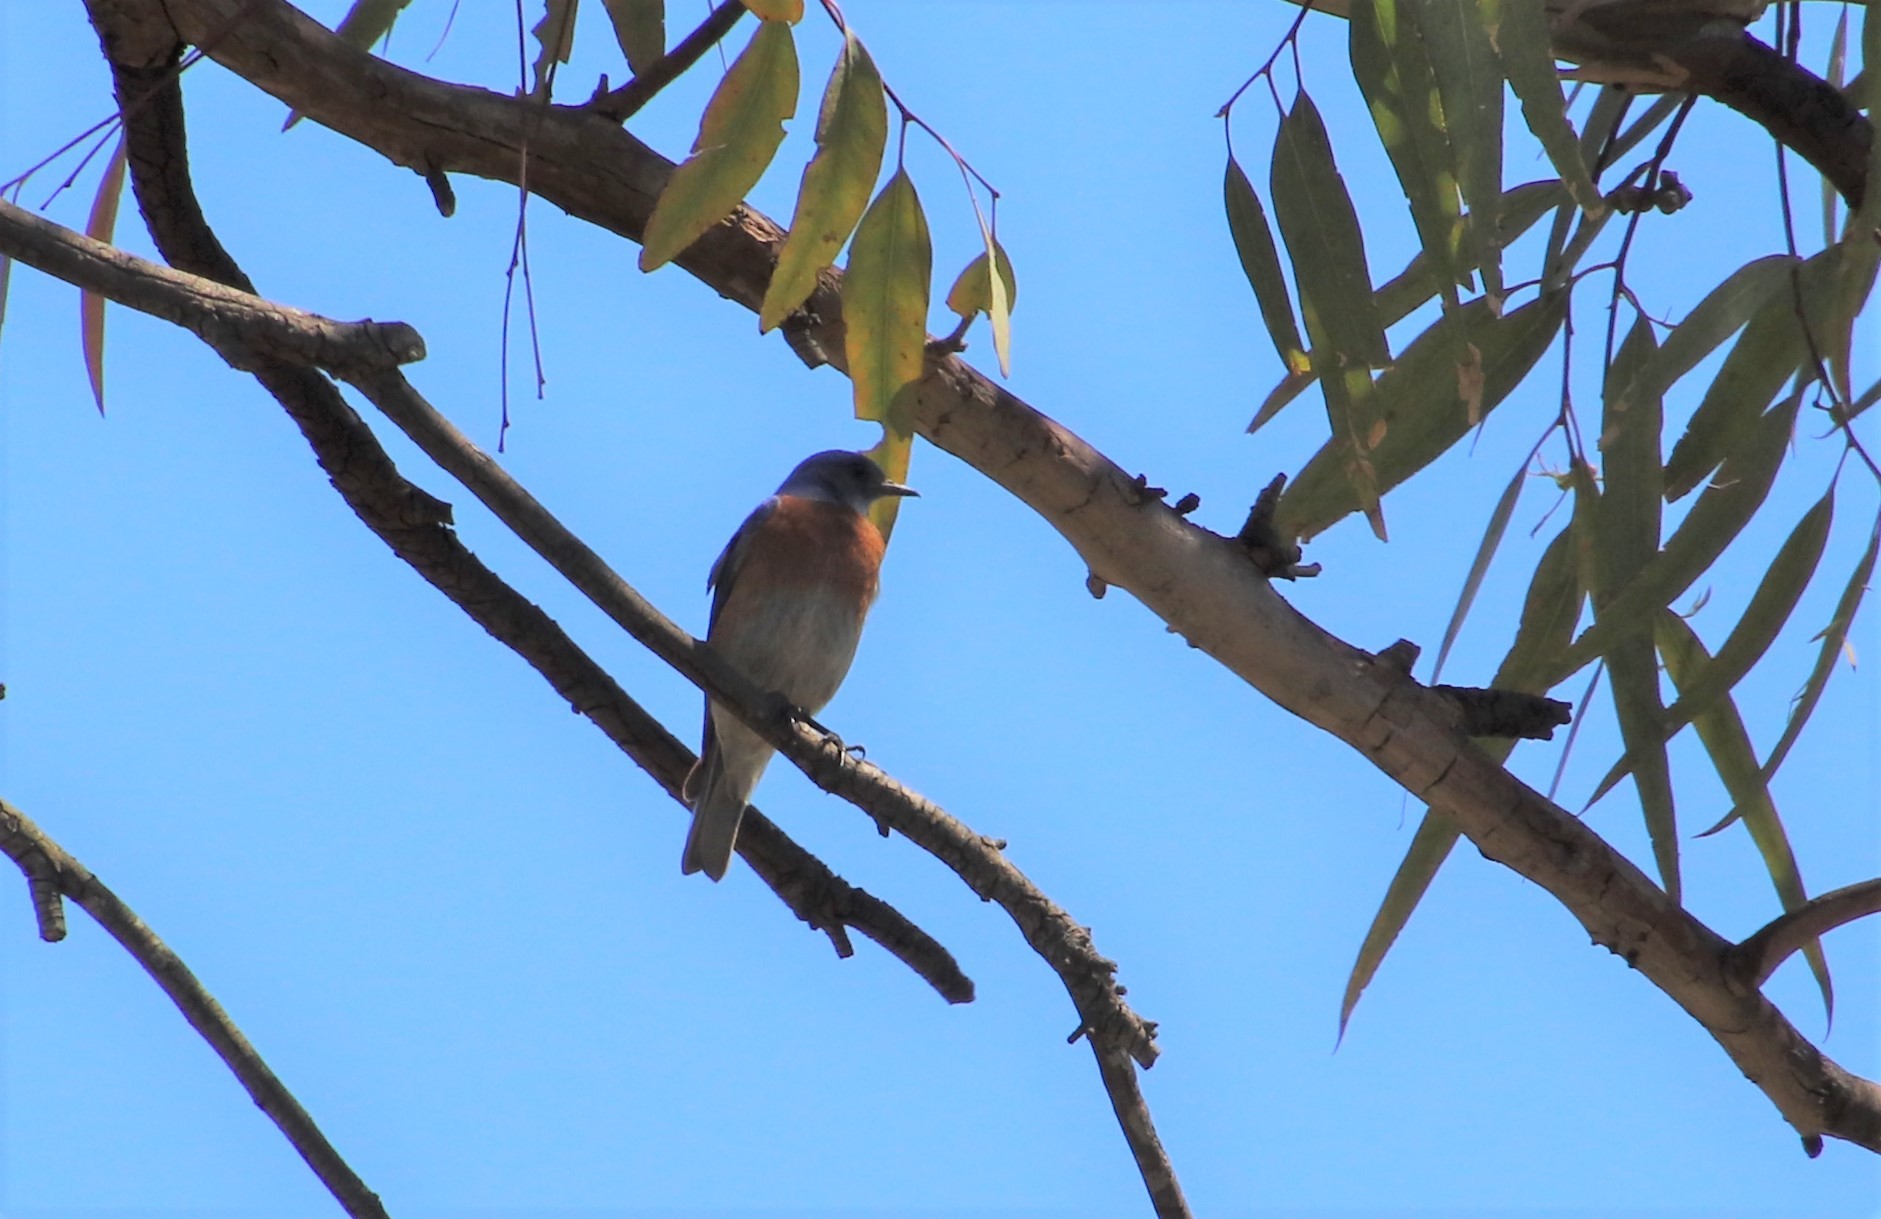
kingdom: Animalia
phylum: Chordata
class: Aves
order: Passeriformes
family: Turdidae
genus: Sialia
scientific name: Sialia mexicana
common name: Western bluebird
